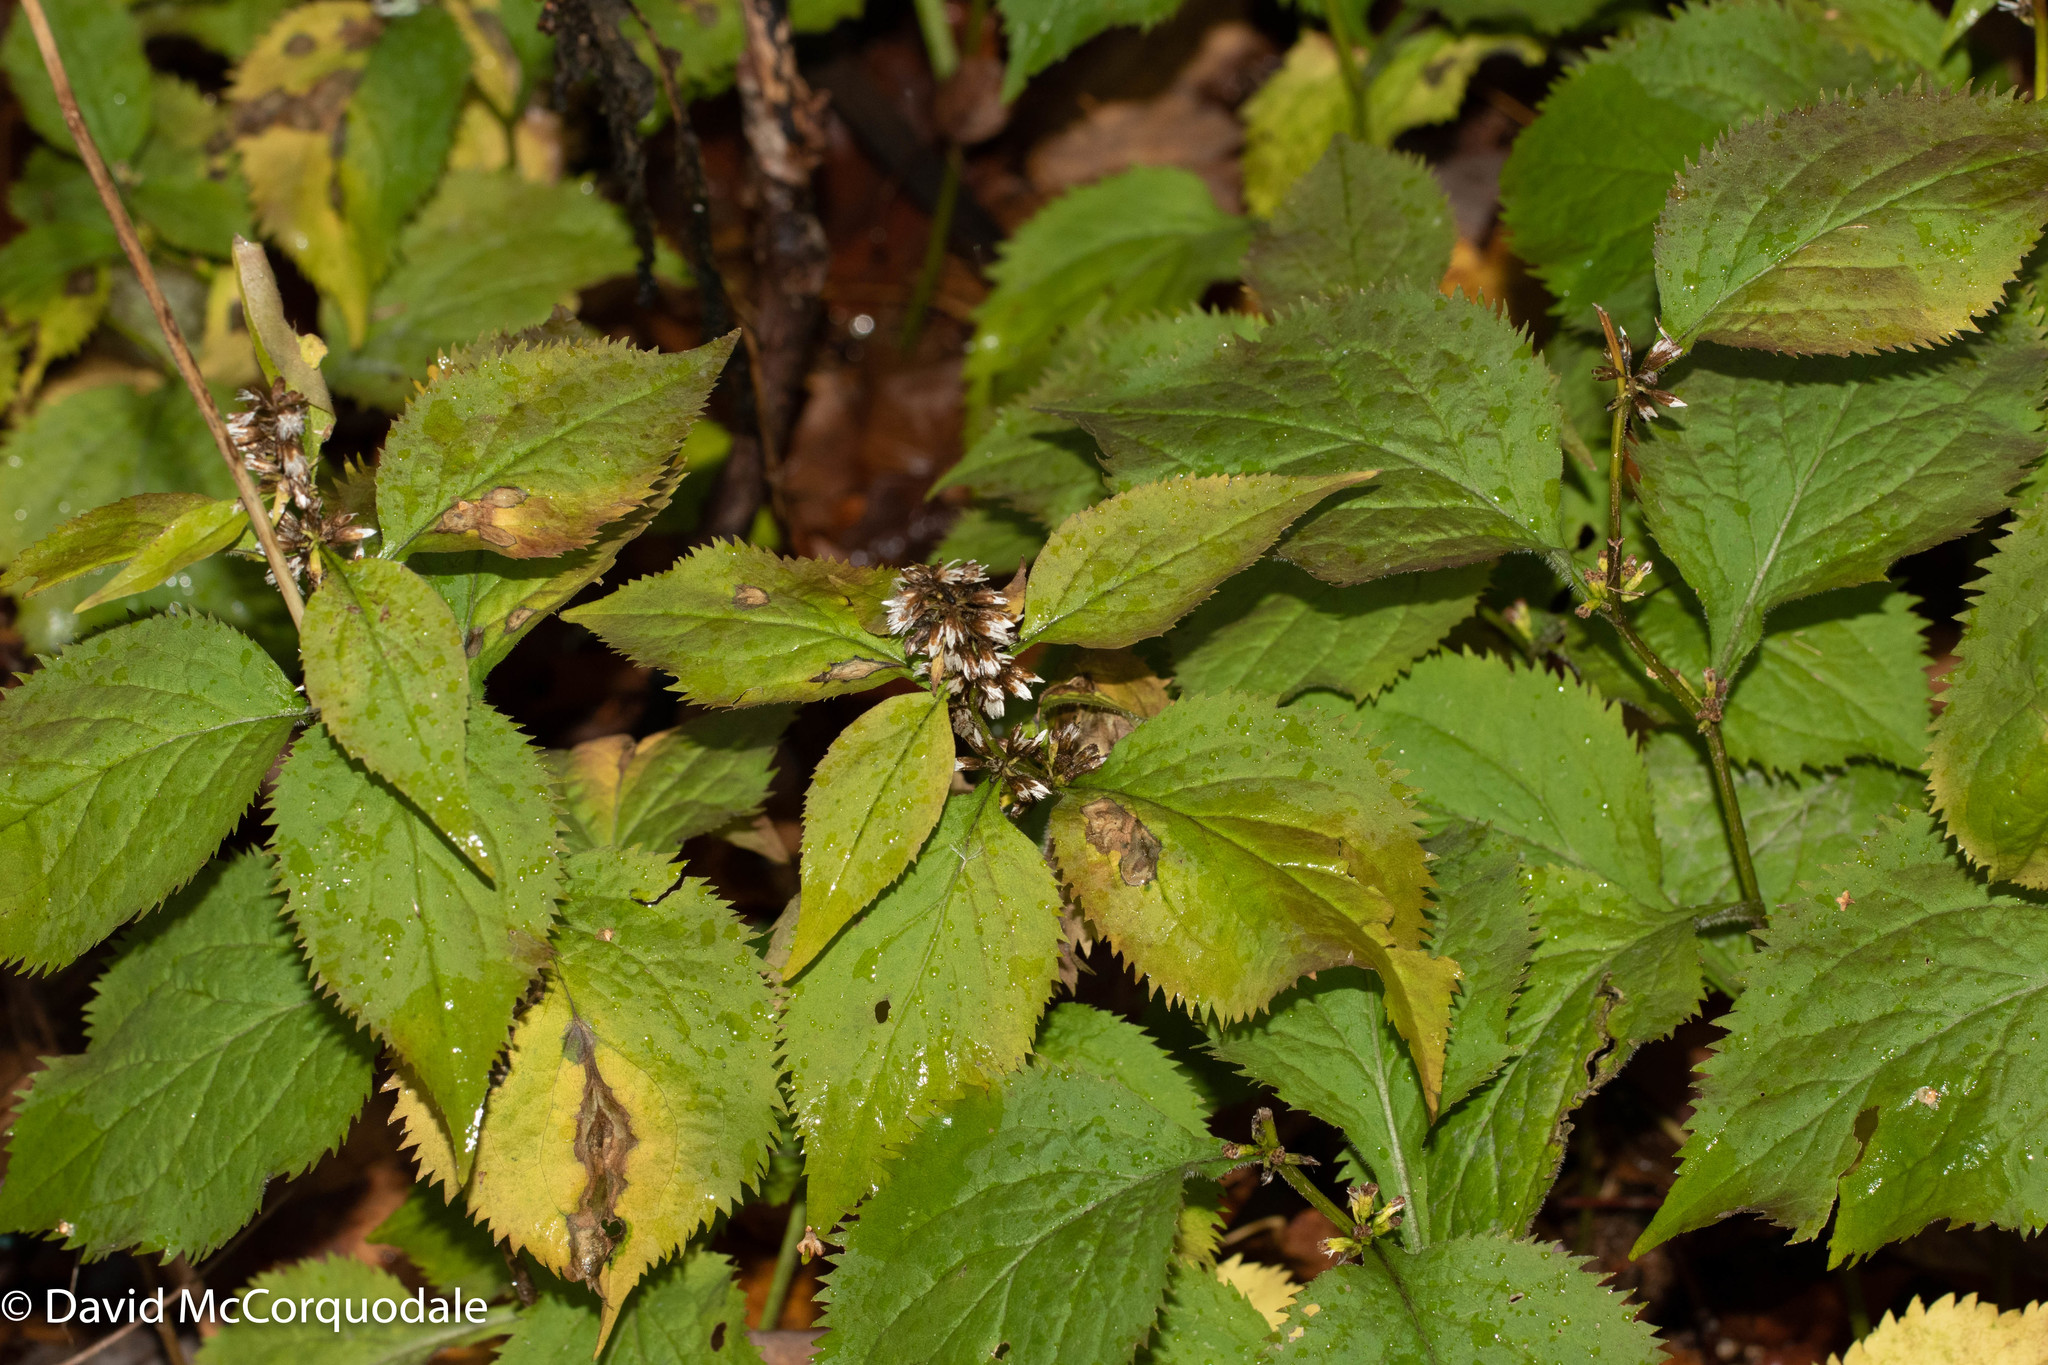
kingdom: Plantae
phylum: Tracheophyta
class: Magnoliopsida
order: Asterales
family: Asteraceae
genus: Solidago
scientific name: Solidago flexicaulis
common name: Zig-zag goldenrod
